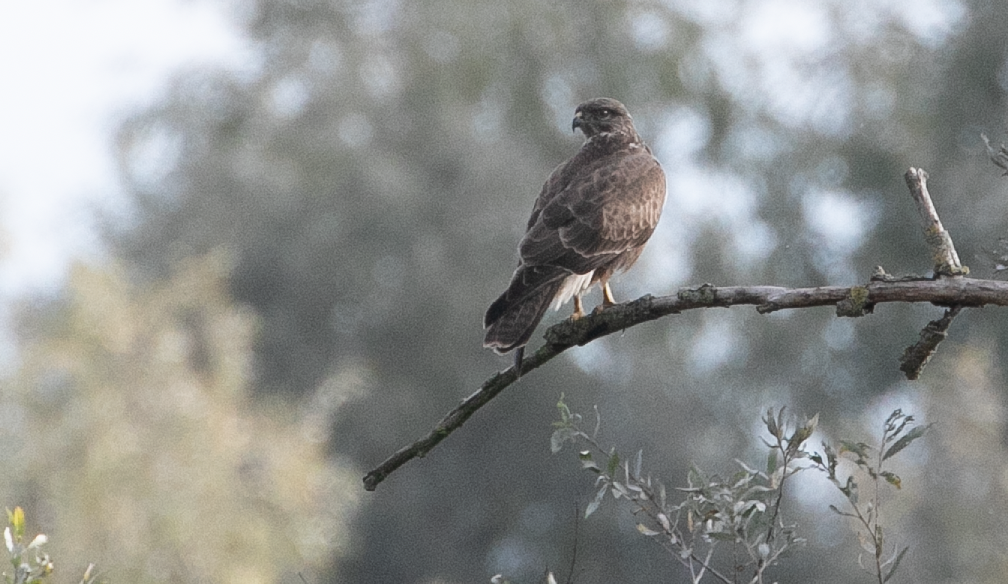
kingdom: Animalia
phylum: Chordata
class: Aves
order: Accipitriformes
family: Accipitridae
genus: Buteo
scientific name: Buteo buteo
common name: Common buzzard
